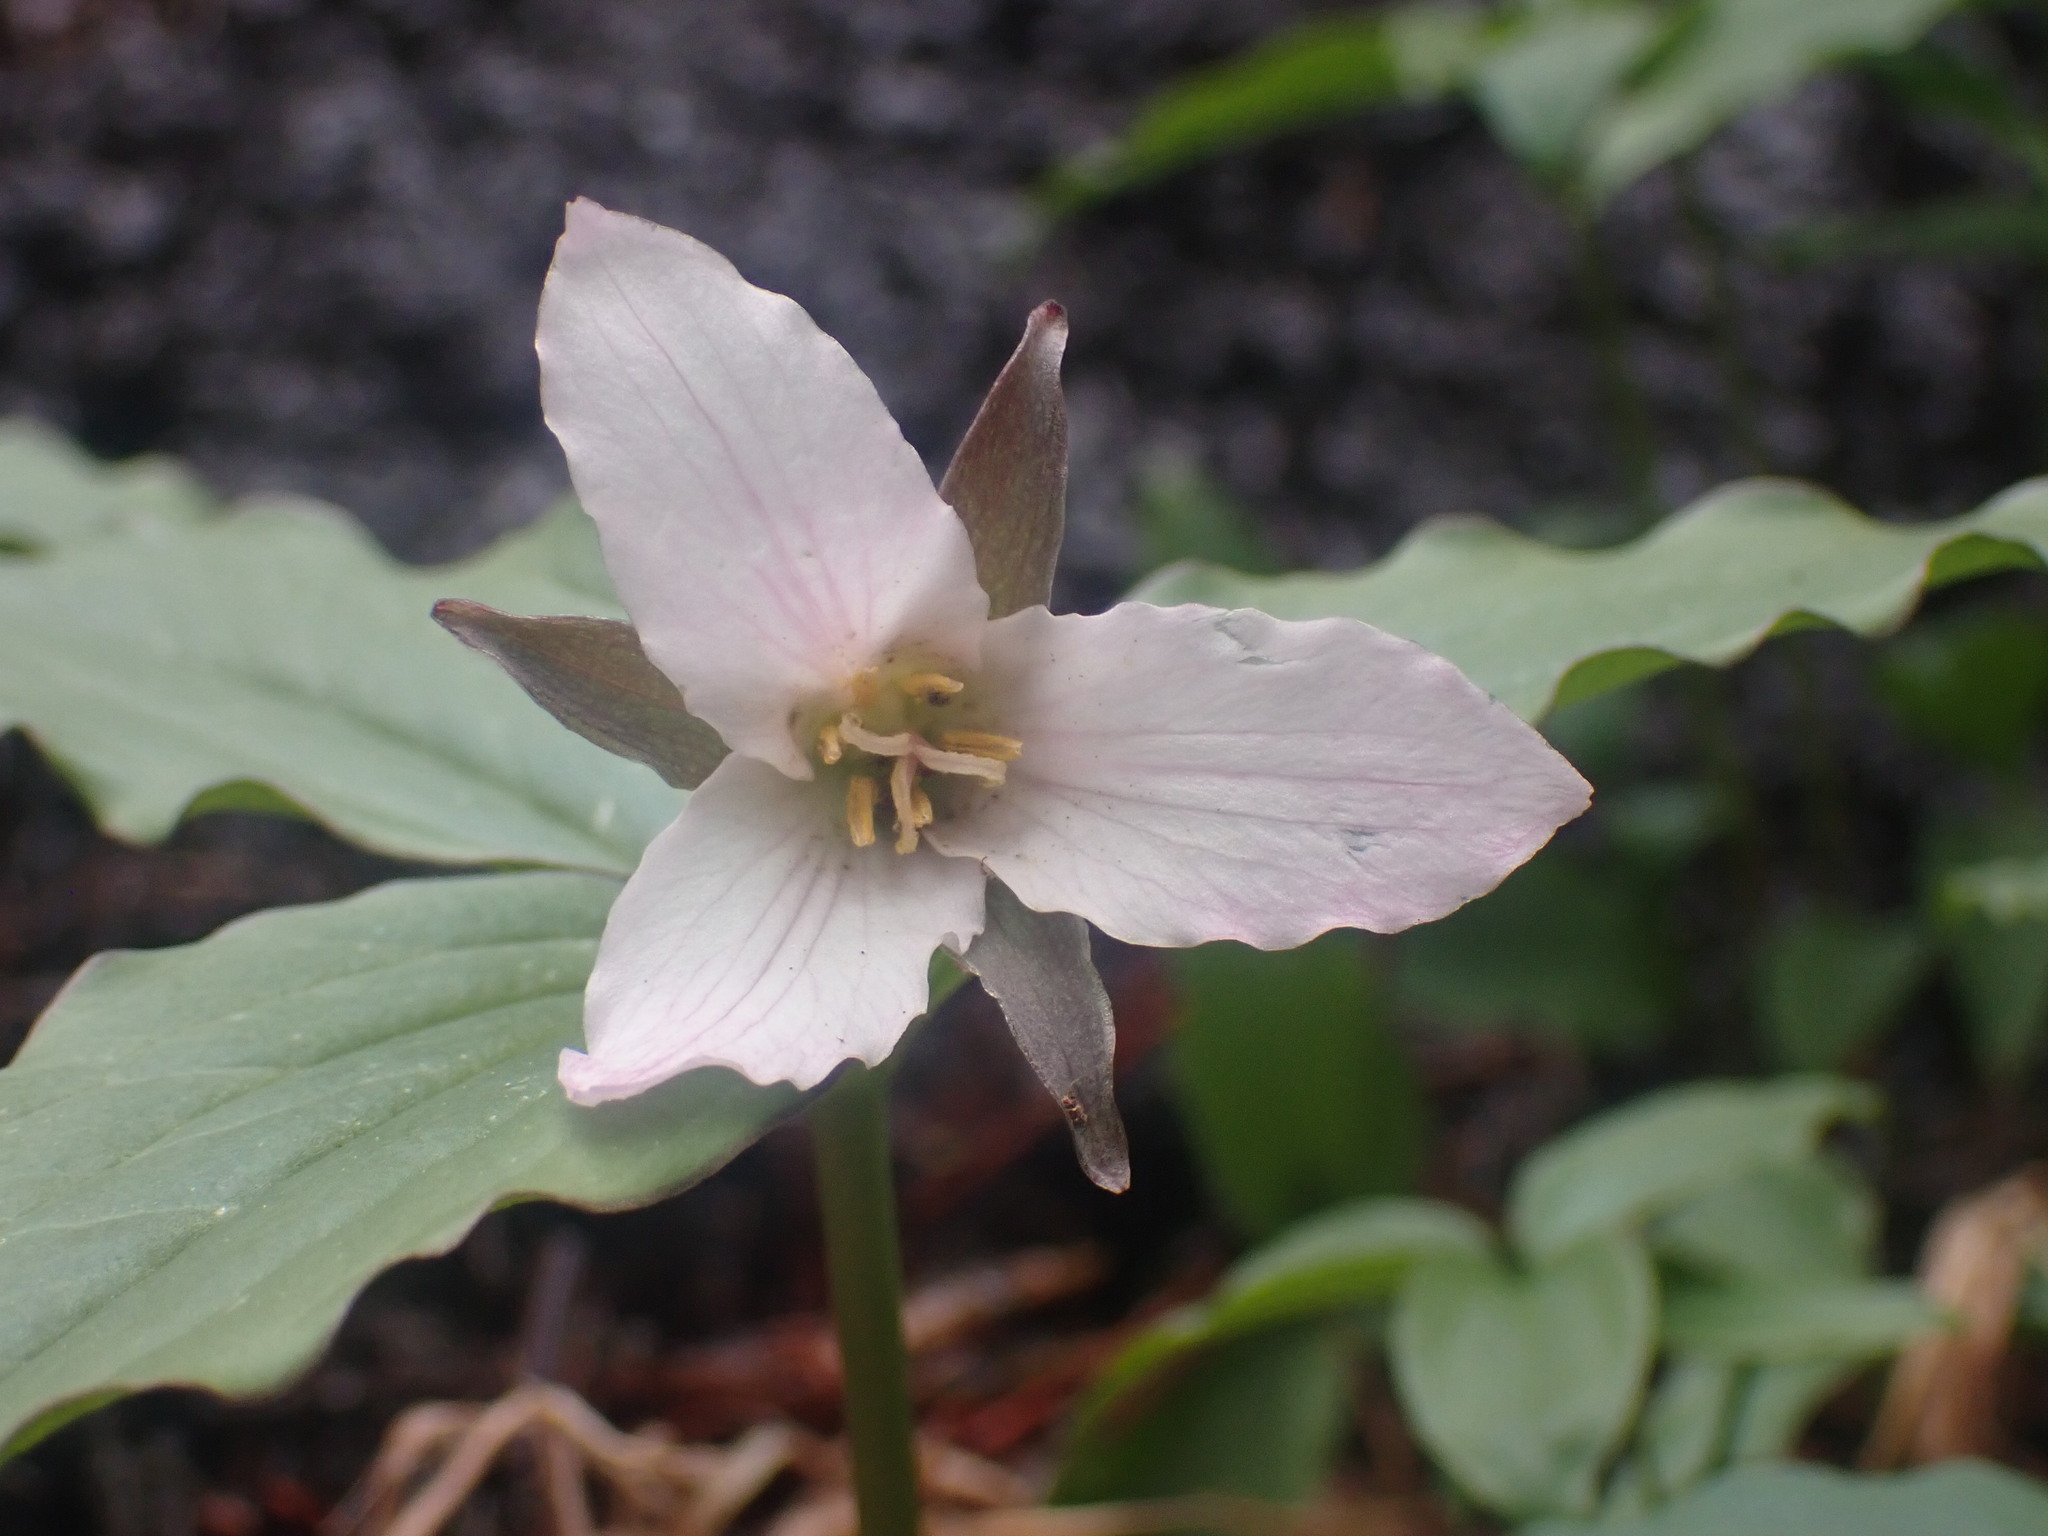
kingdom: Plantae
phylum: Tracheophyta
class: Liliopsida
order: Liliales
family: Melanthiaceae
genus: Trillium
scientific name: Trillium hibbersonii
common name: Hibberson's trillium
